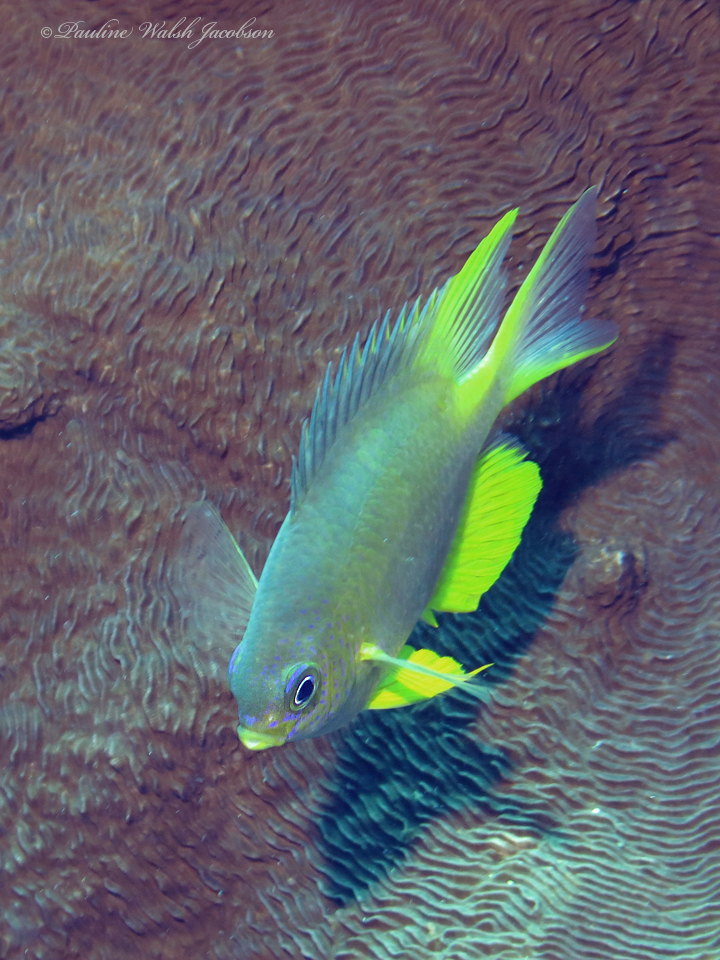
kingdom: Animalia
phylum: Chordata
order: Perciformes
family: Pomacentridae
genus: Amblyglyphidodon
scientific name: Amblyglyphidodon aureus
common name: Golden damsel
